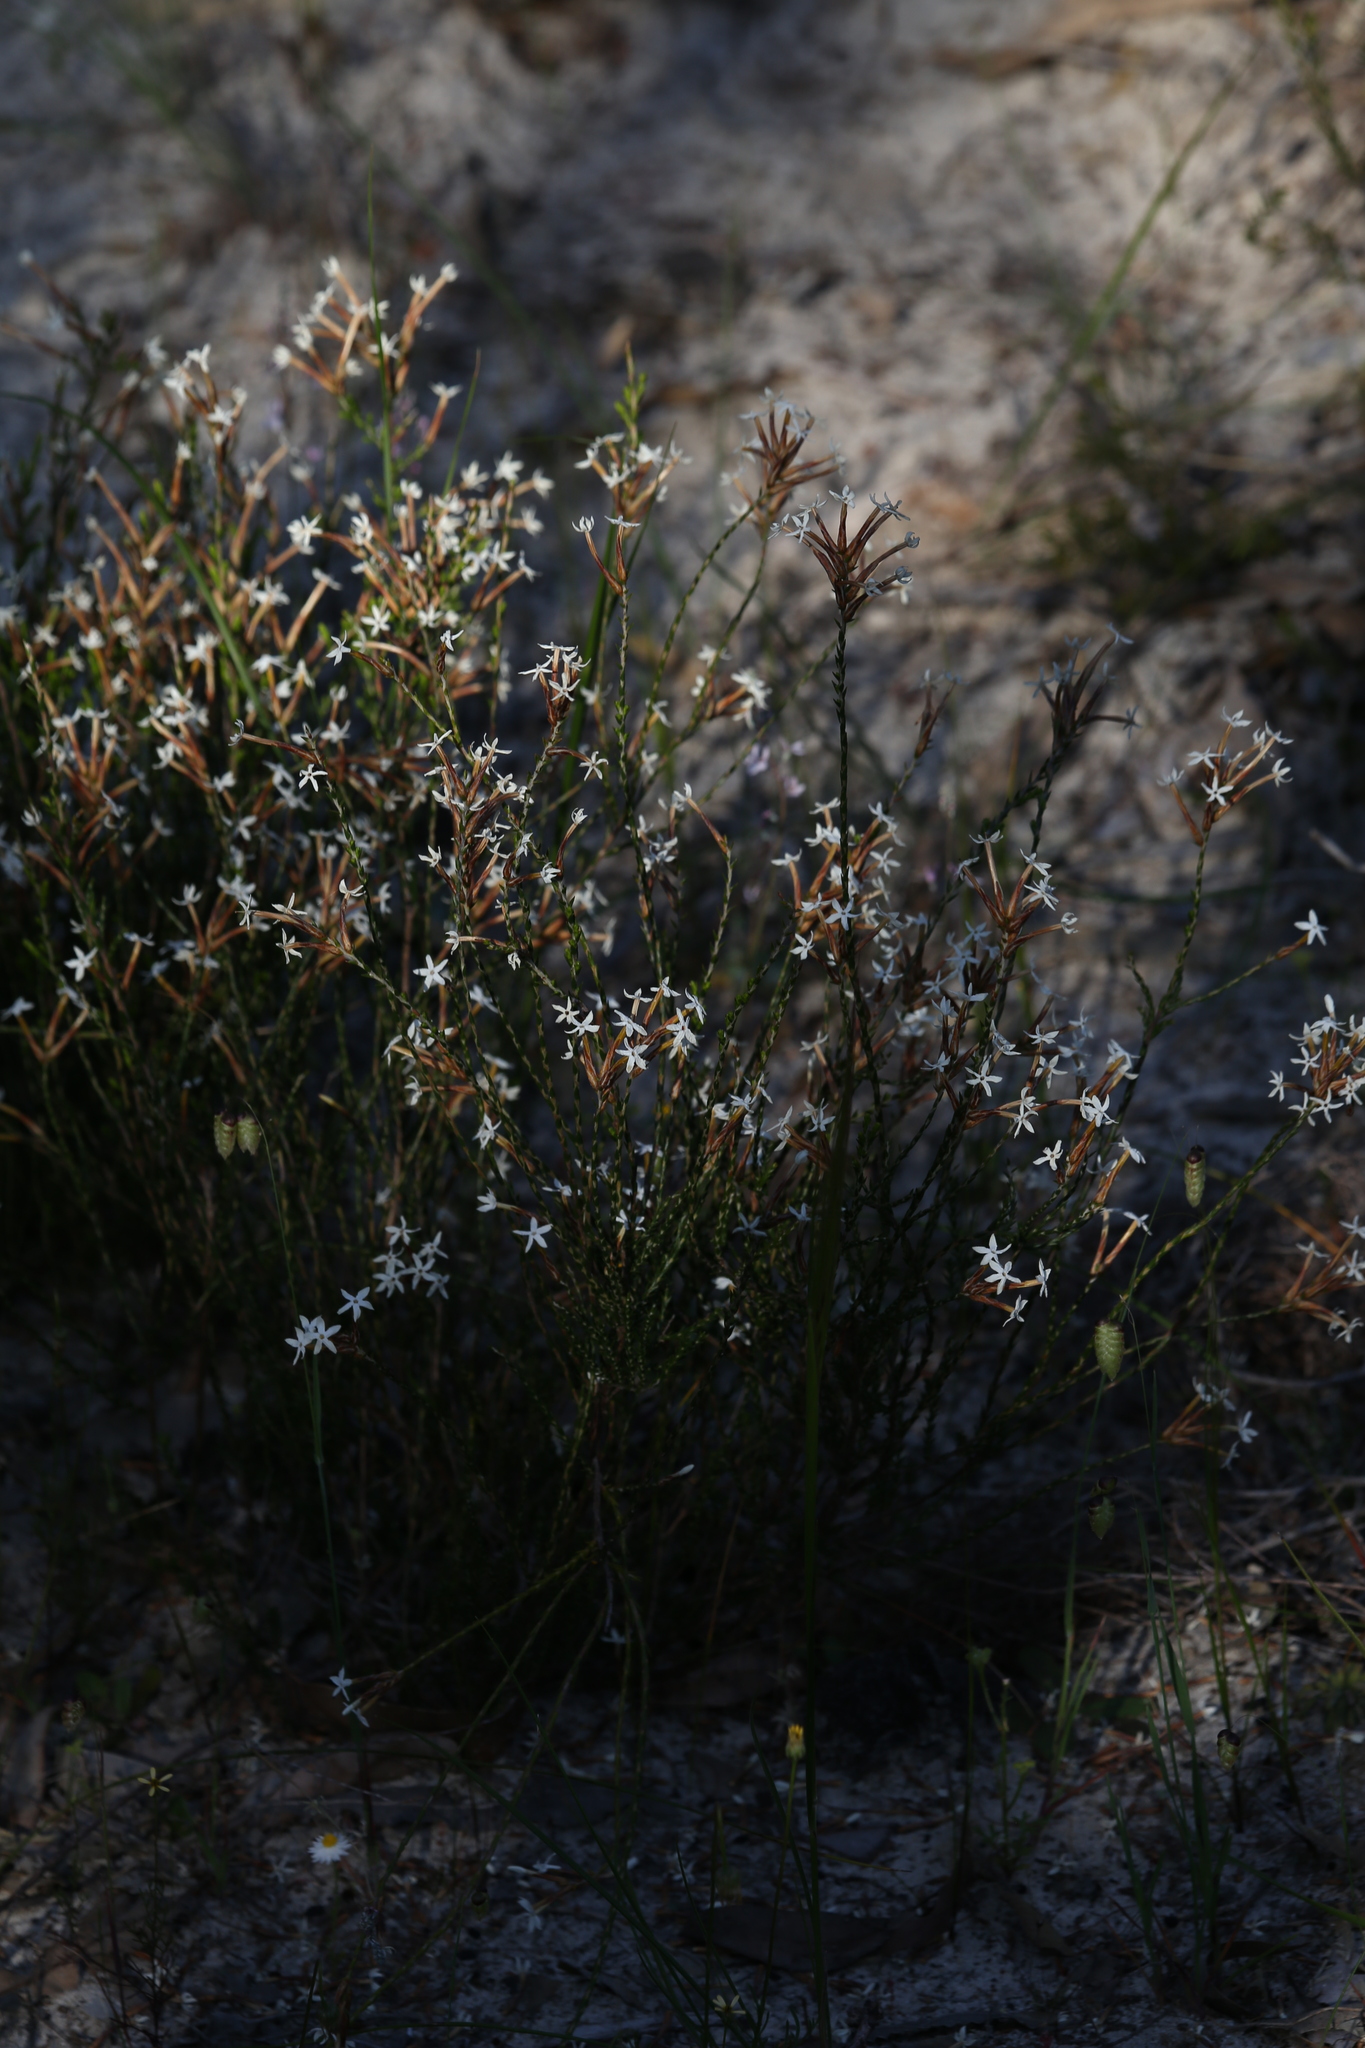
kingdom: Plantae
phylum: Tracheophyta
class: Magnoliopsida
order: Ericales
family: Ericaceae
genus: Lysinema
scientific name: Lysinema pentapetalum
